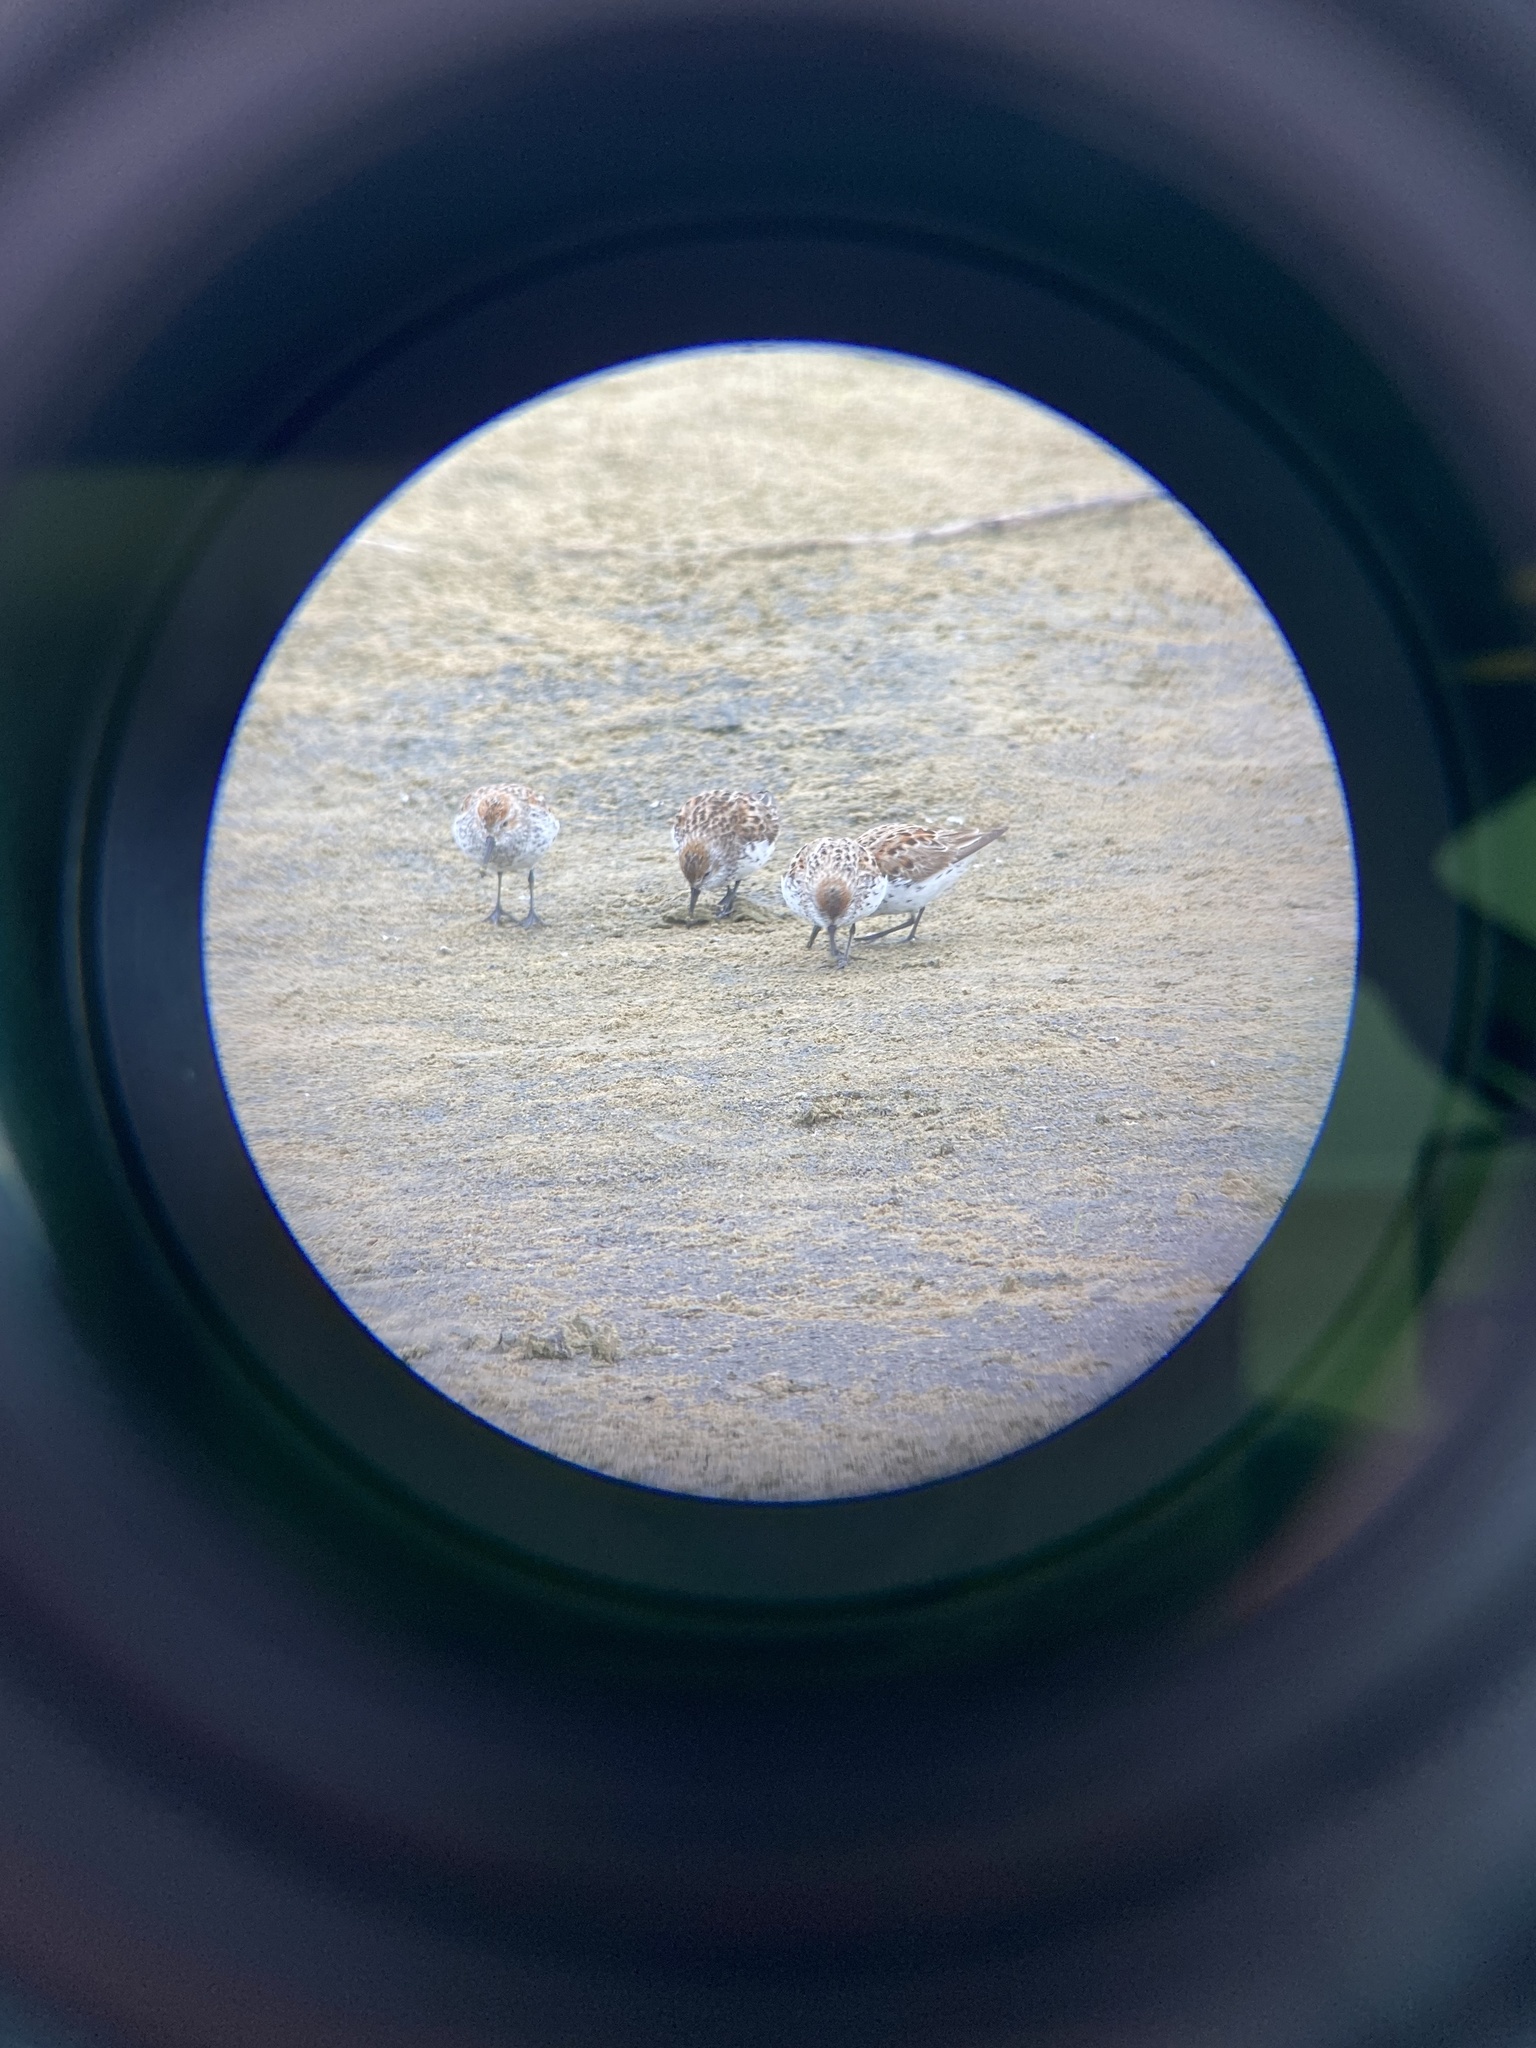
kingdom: Animalia
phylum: Chordata
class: Aves
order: Charadriiformes
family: Scolopacidae
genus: Calidris
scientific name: Calidris alba
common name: Sanderling
